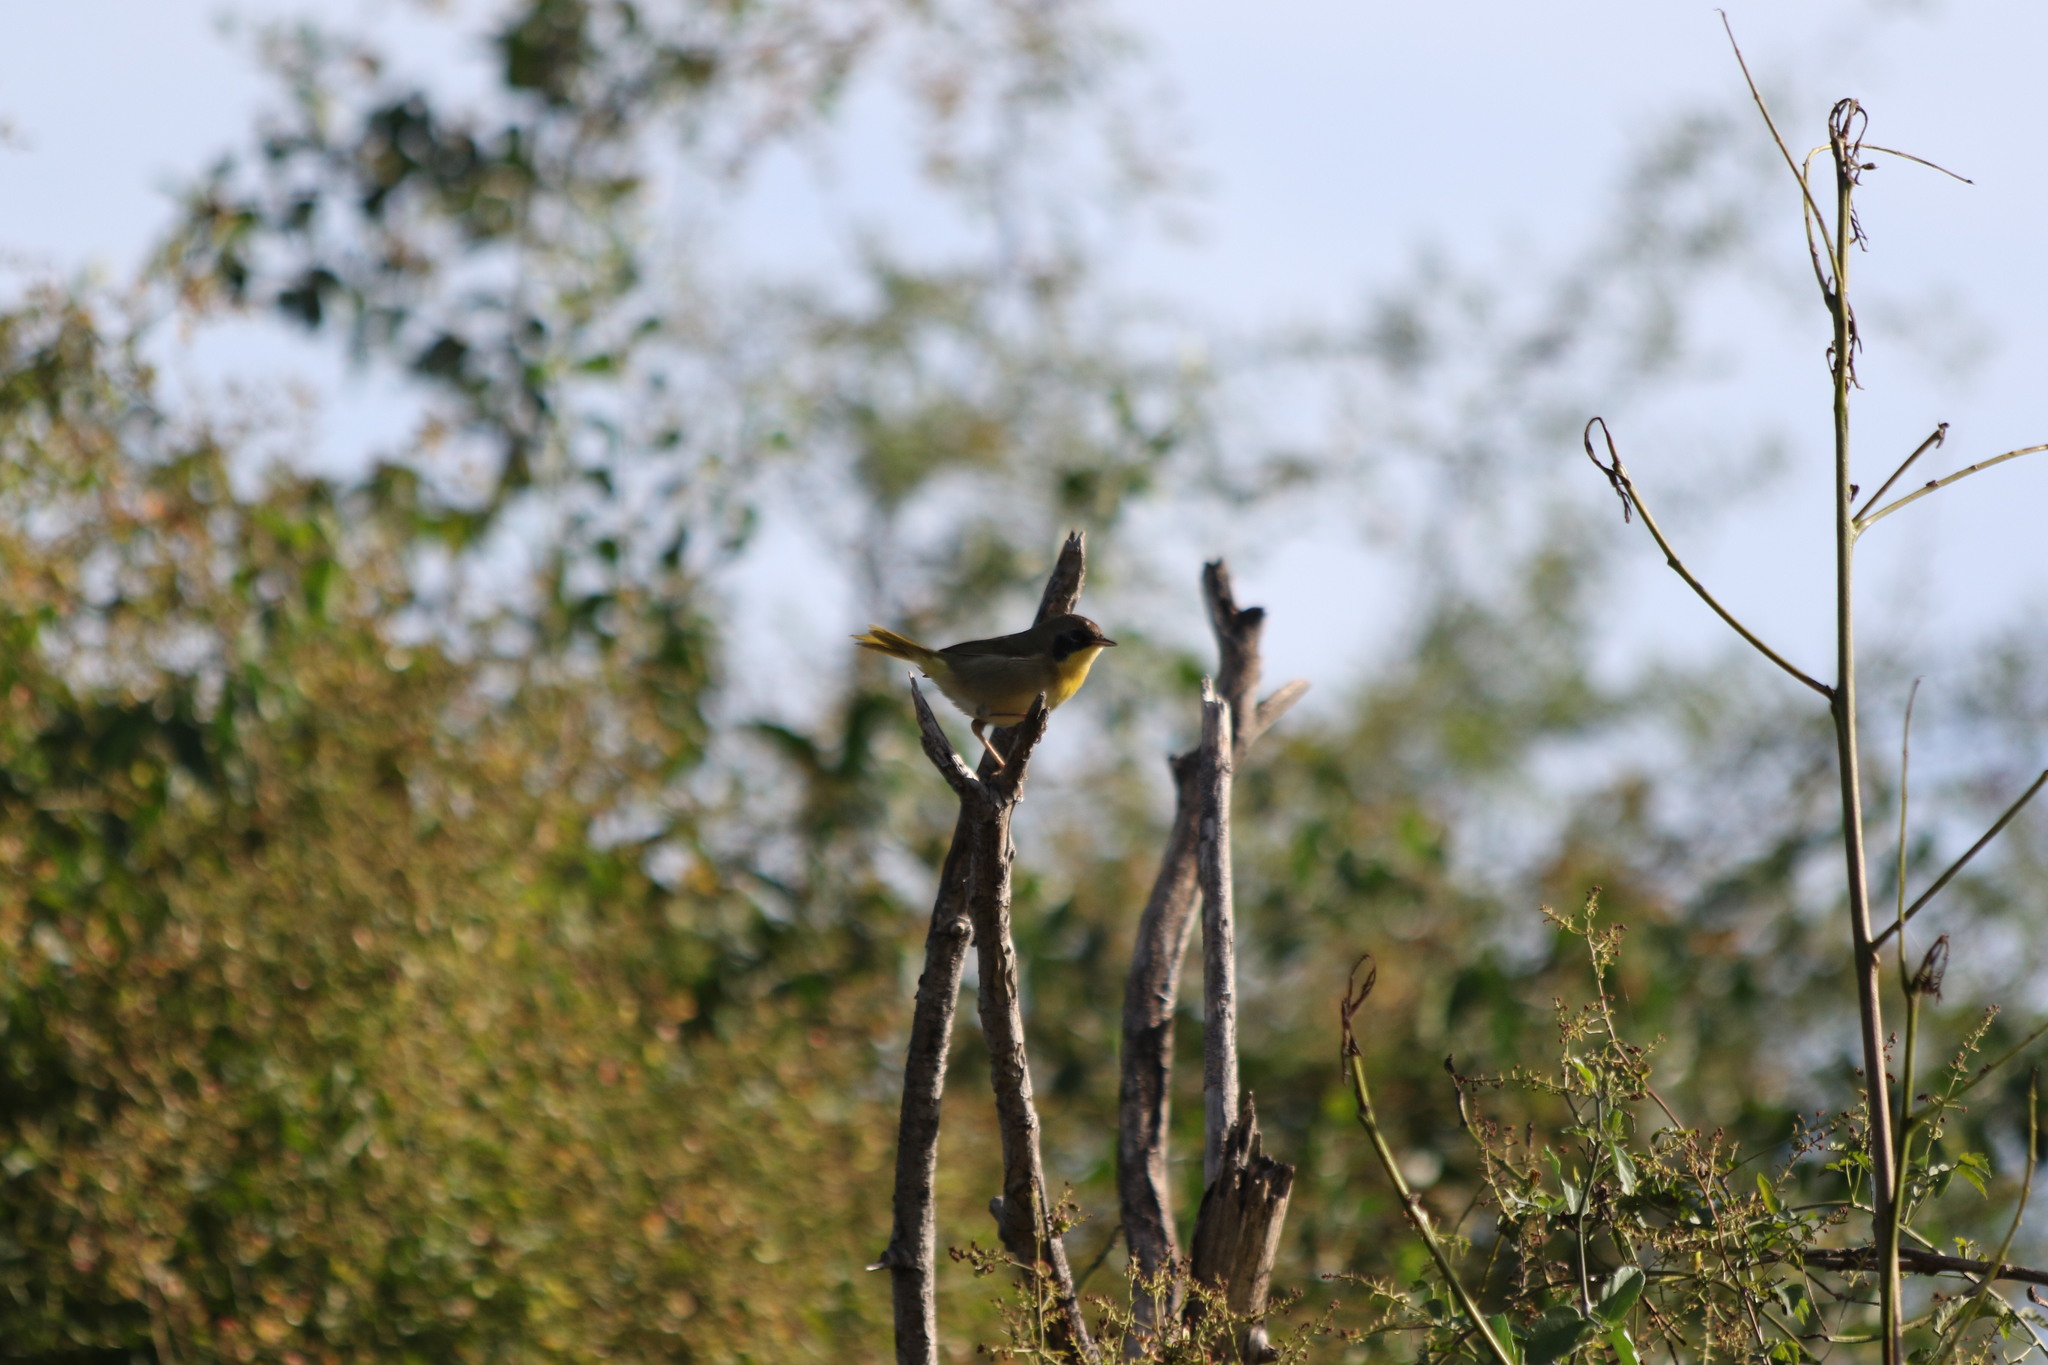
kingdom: Animalia
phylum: Chordata
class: Aves
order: Passeriformes
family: Parulidae
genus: Geothlypis
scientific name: Geothlypis trichas
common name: Common yellowthroat
